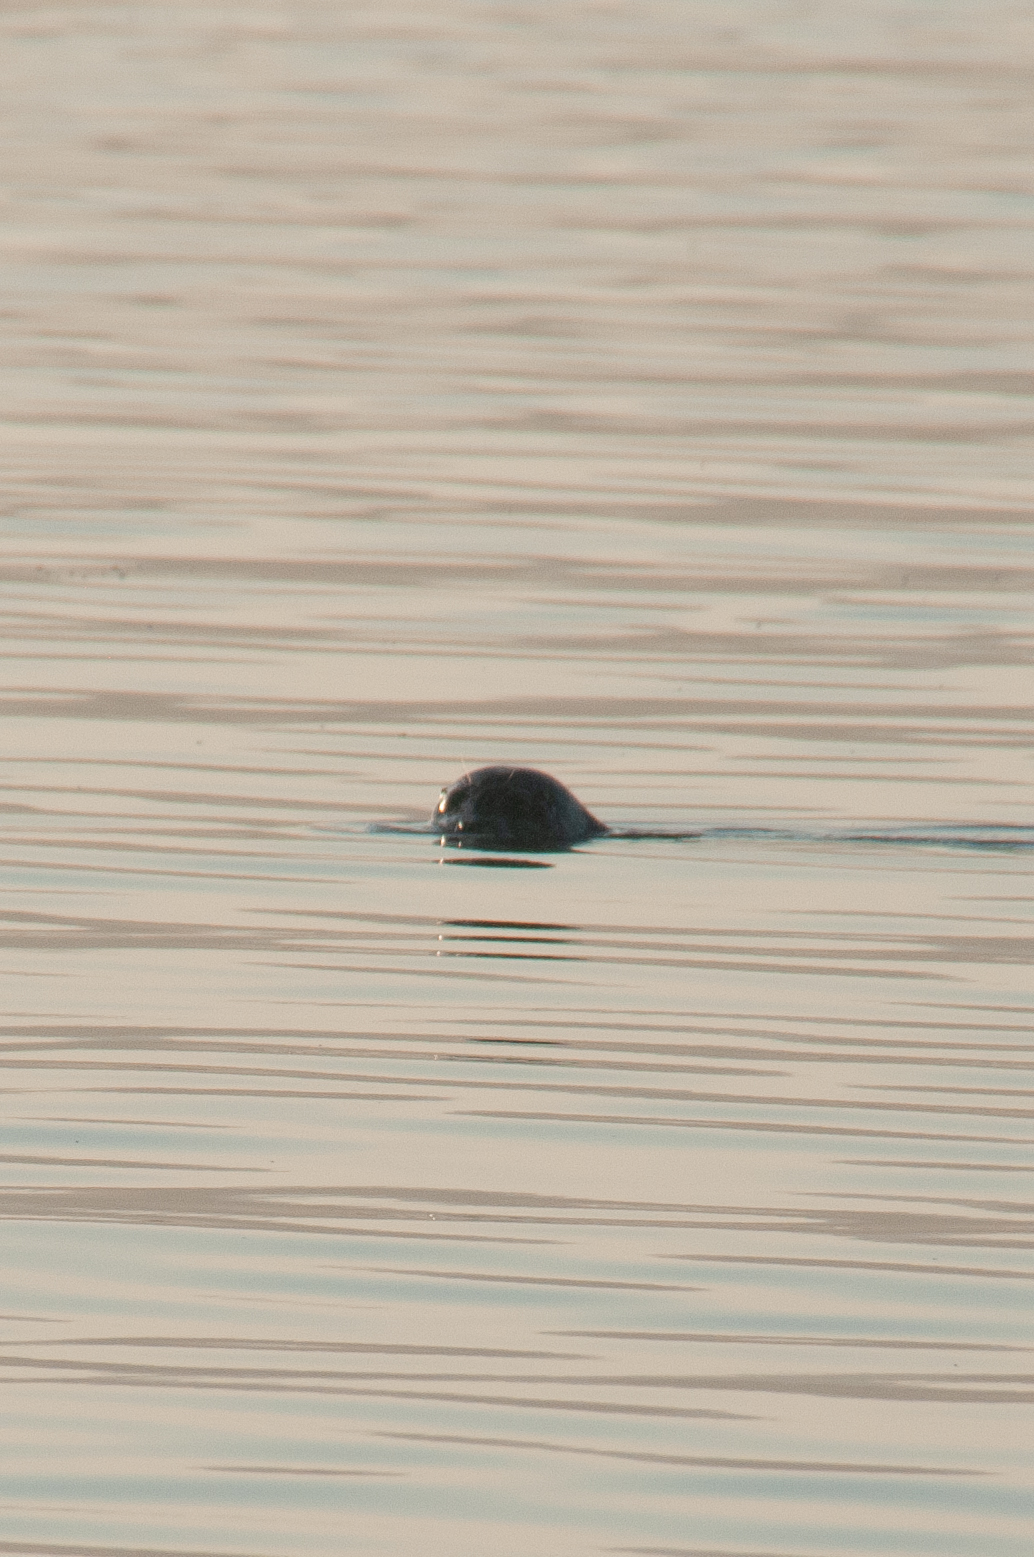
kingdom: Animalia
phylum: Chordata
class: Mammalia
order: Carnivora
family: Phocidae
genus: Phoca
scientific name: Phoca vitulina
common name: Harbor seal
